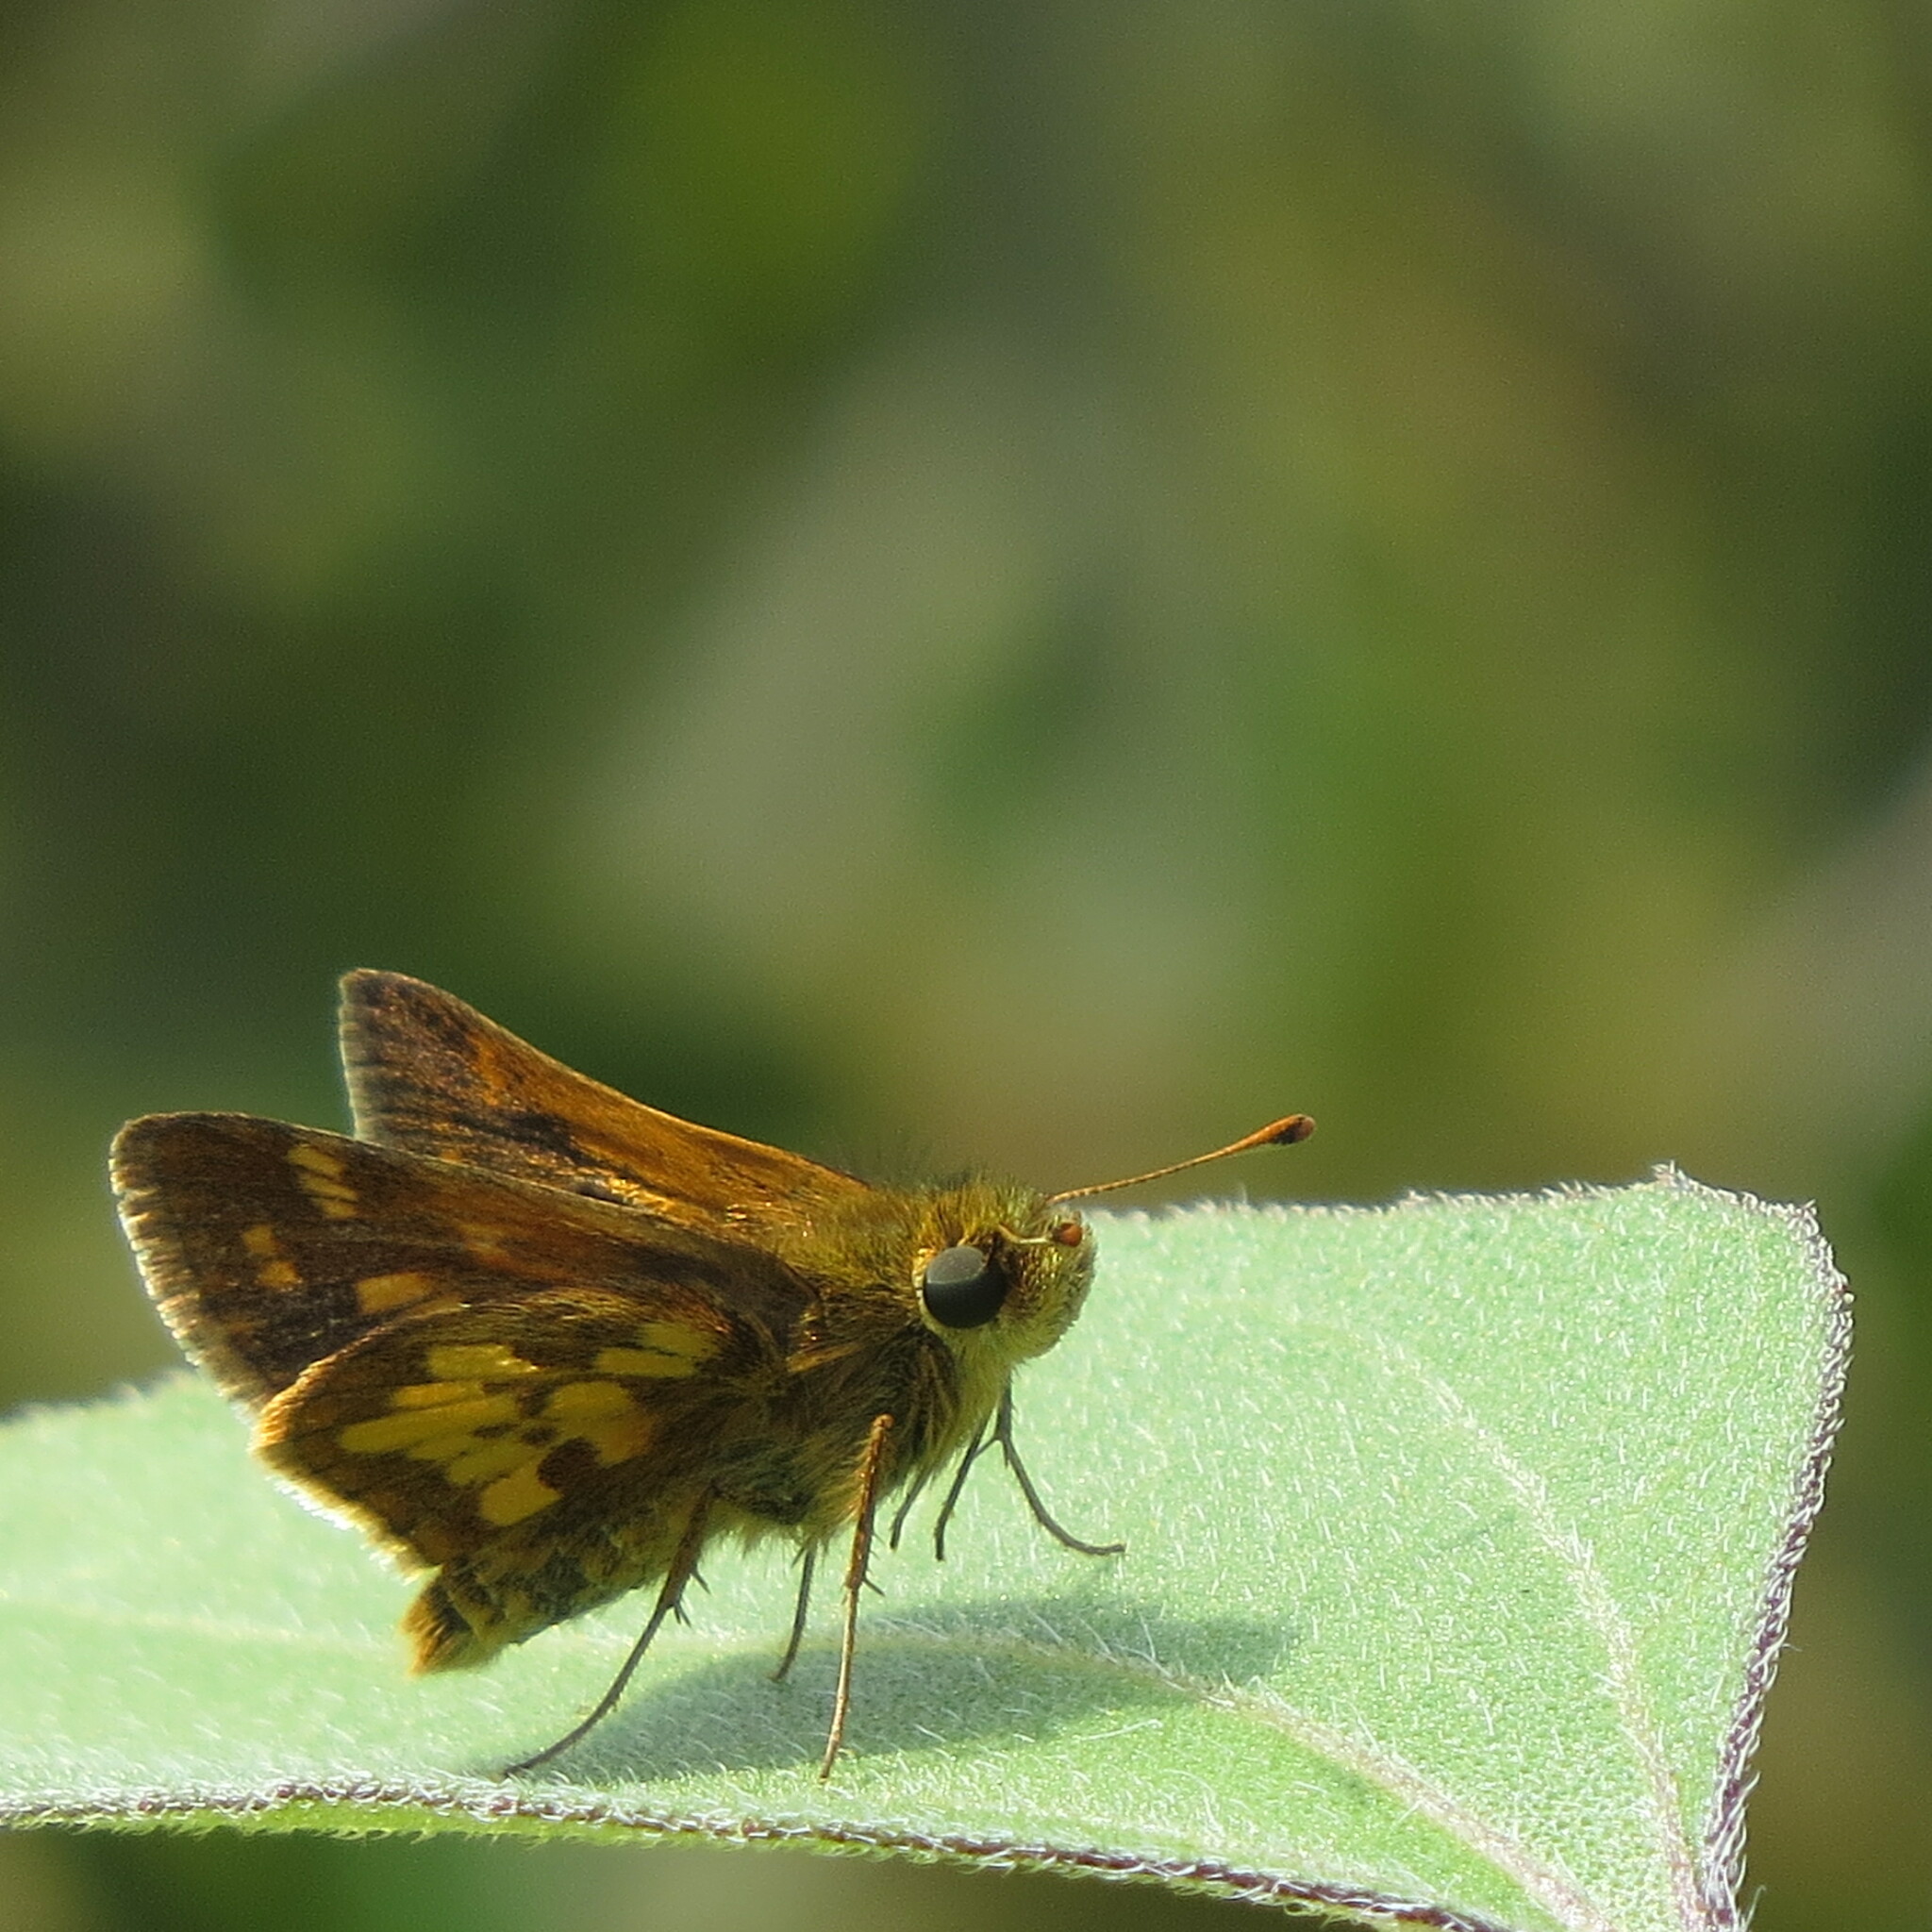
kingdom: Animalia
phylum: Arthropoda
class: Insecta
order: Lepidoptera
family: Hesperiidae
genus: Polites
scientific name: Polites coras
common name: Peck's skipper
